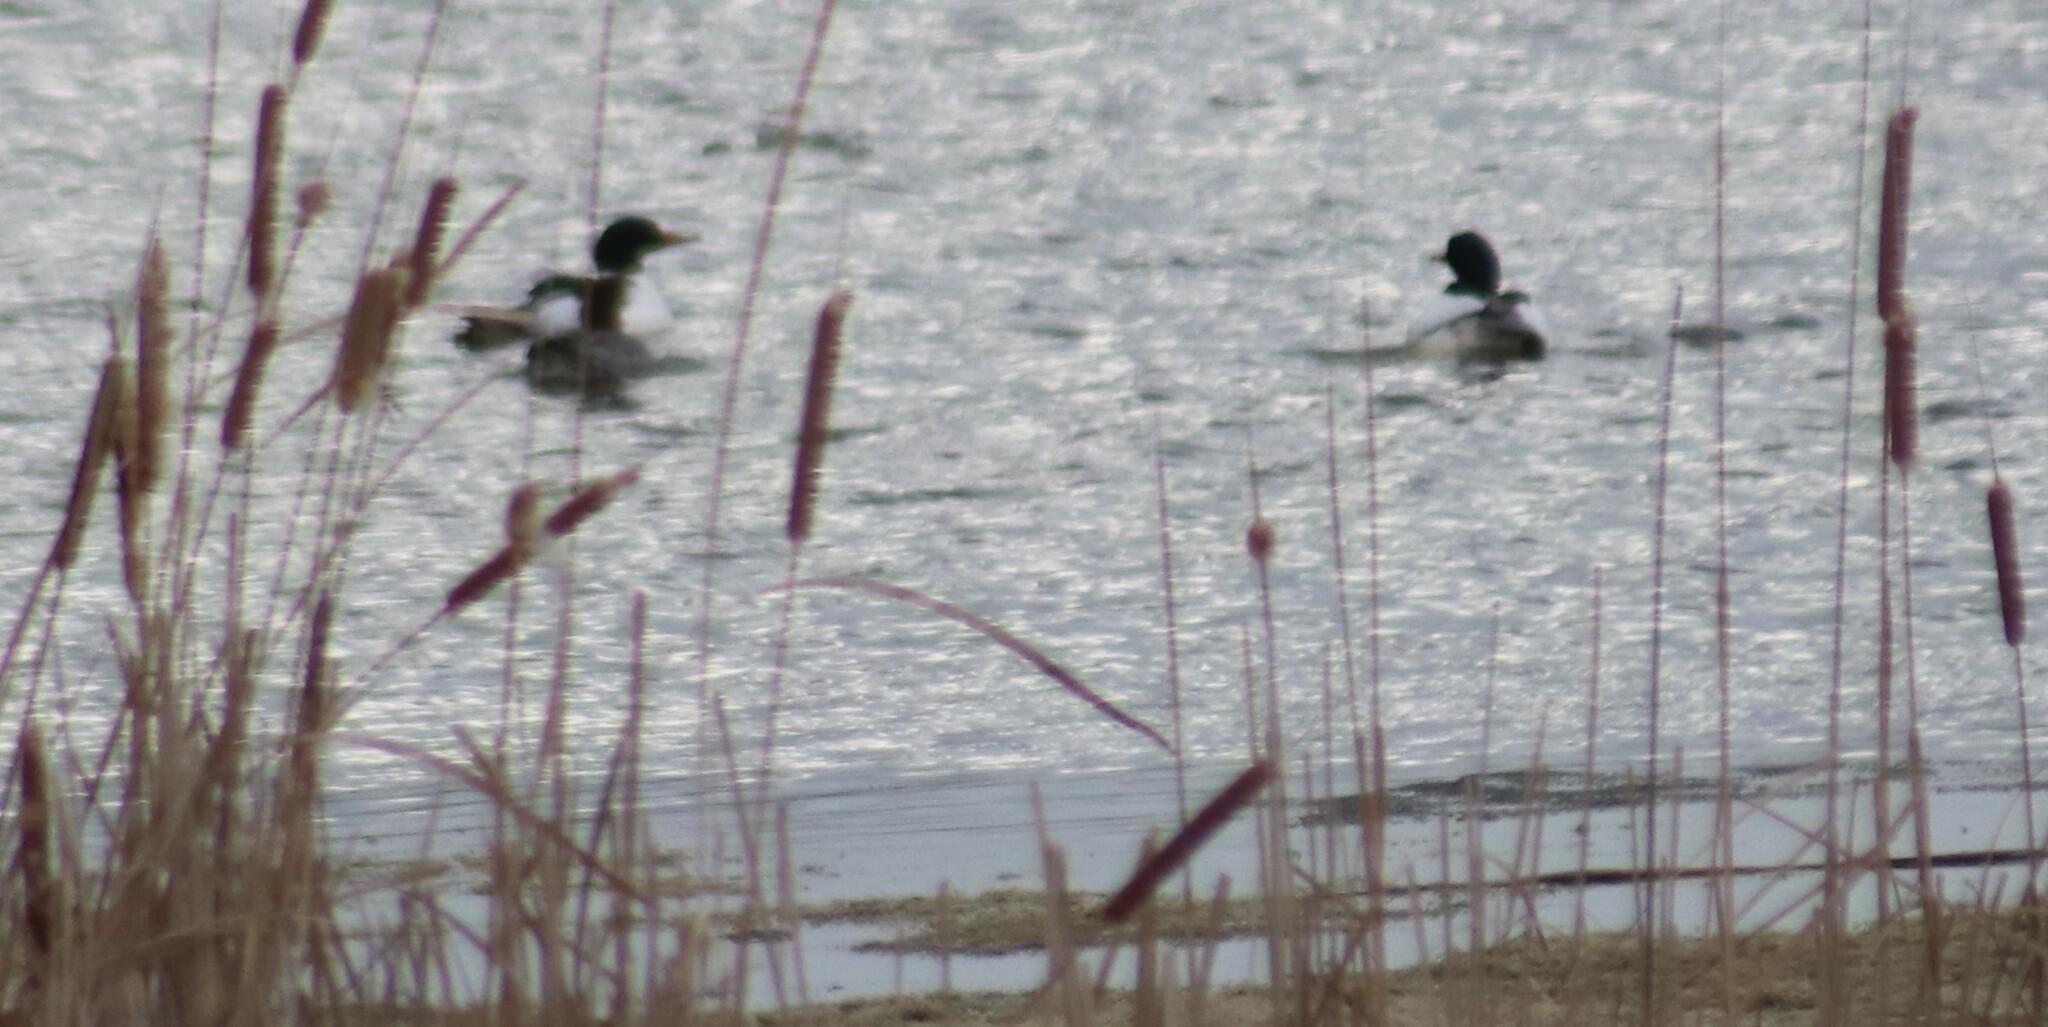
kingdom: Animalia
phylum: Chordata
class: Aves
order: Anseriformes
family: Anatidae
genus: Mergus
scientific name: Mergus merganser
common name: Common merganser
